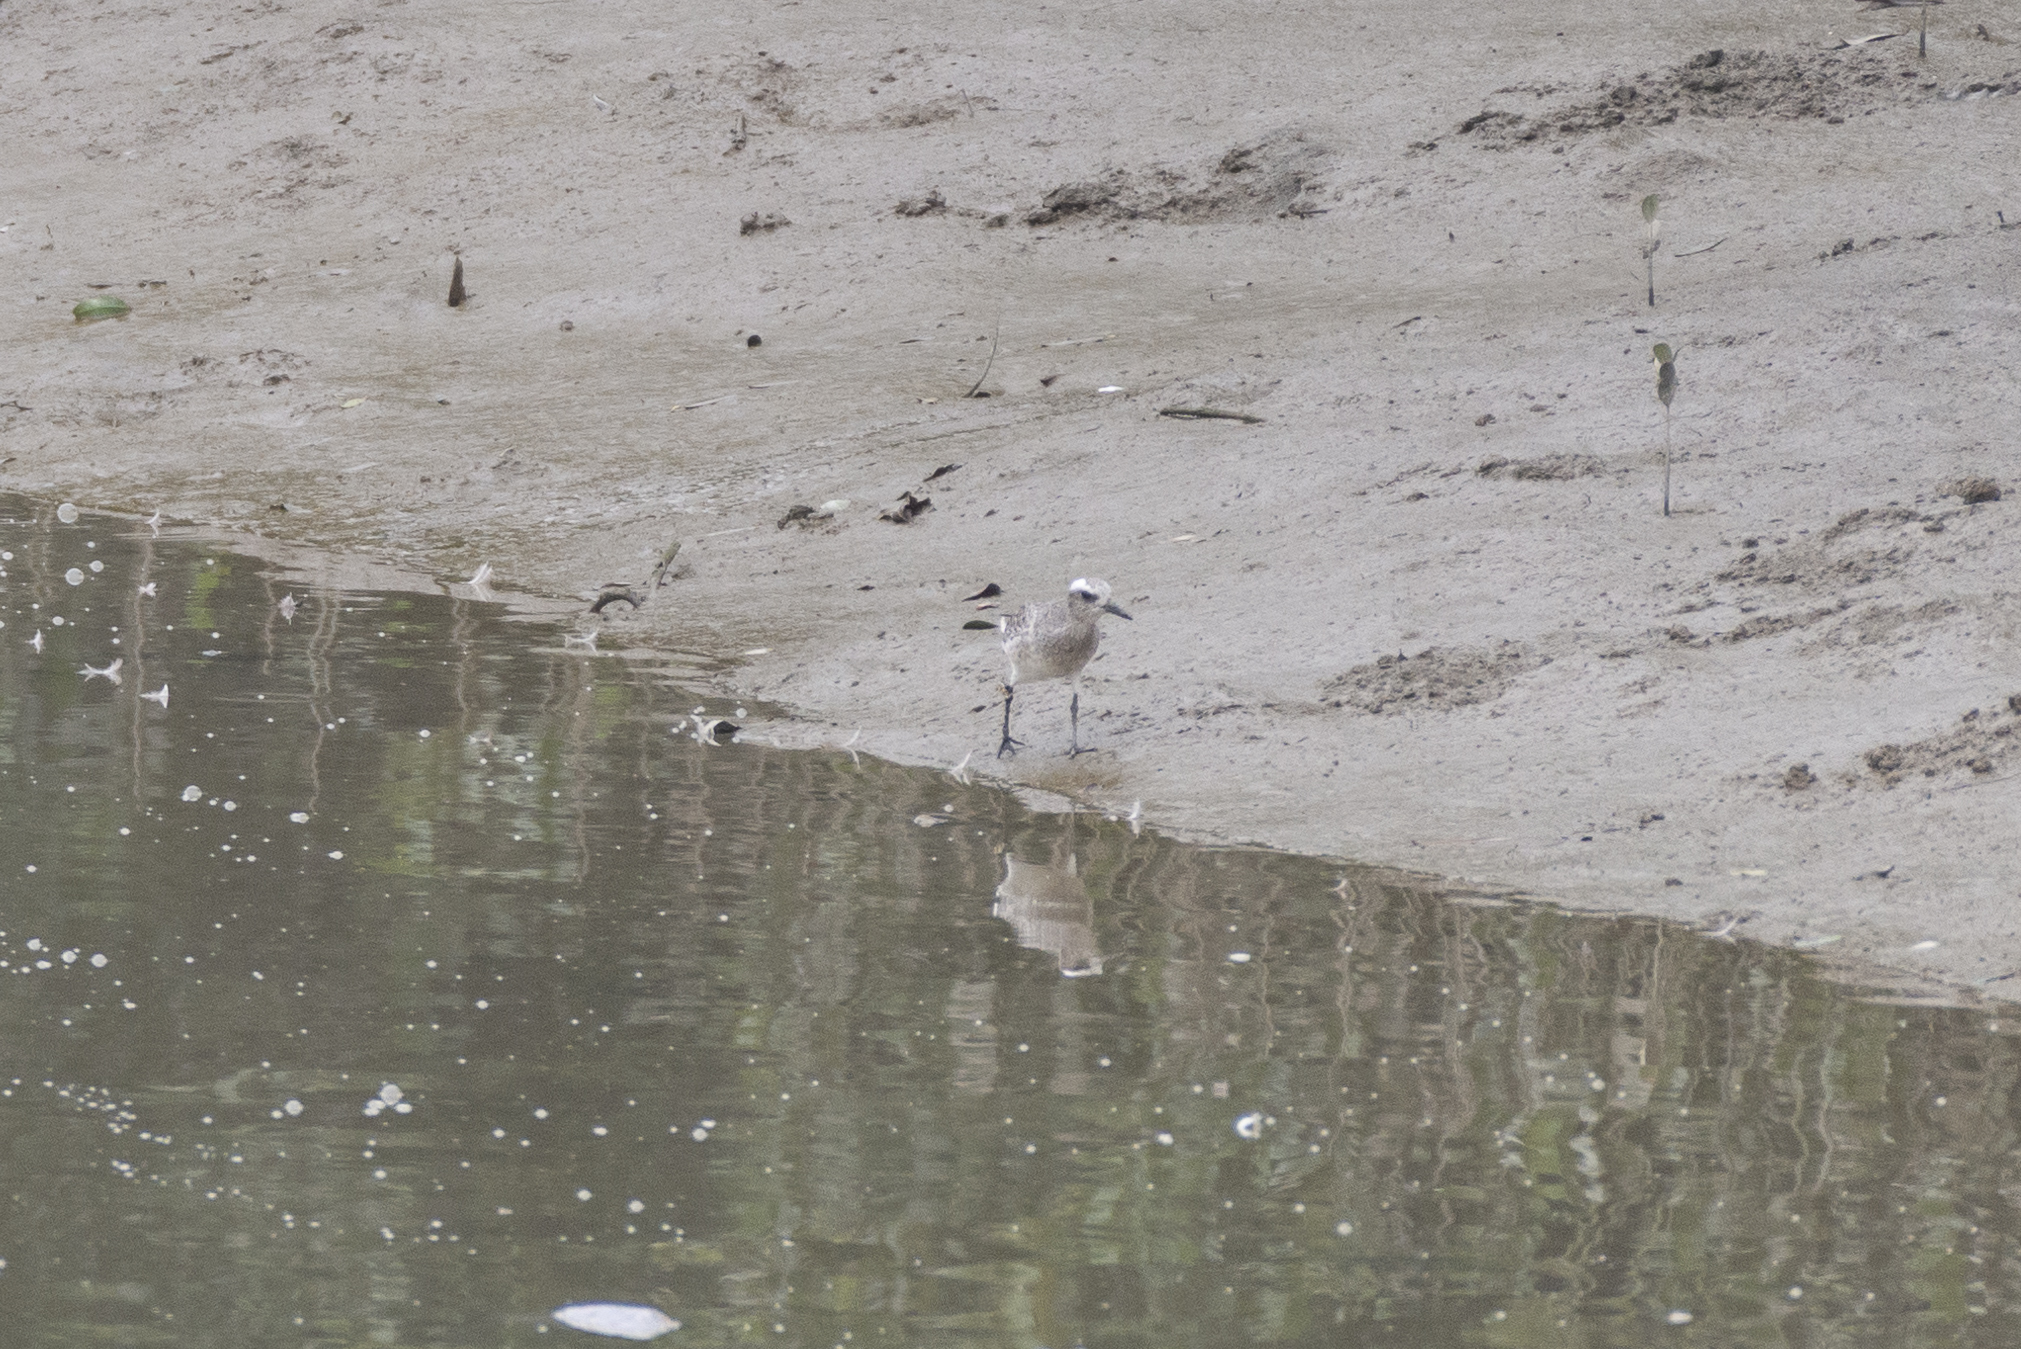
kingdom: Animalia
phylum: Chordata
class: Aves
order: Charadriiformes
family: Charadriidae
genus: Pluvialis
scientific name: Pluvialis squatarola
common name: Grey plover
